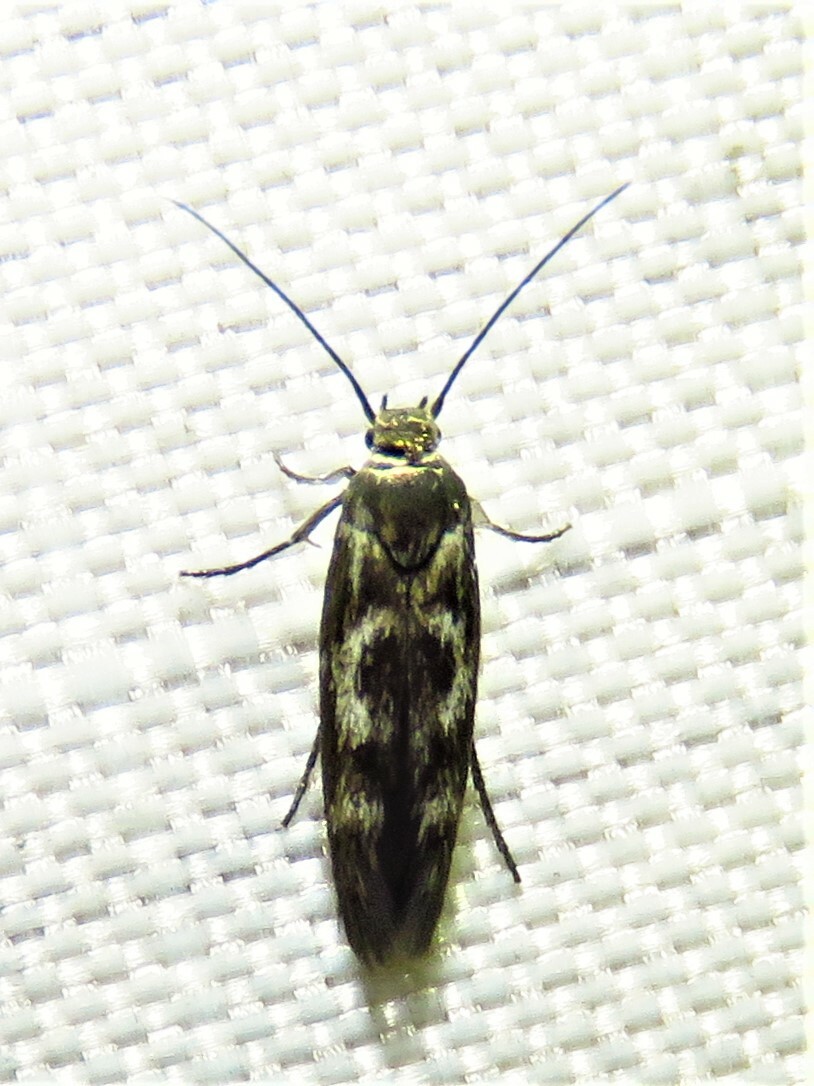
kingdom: Animalia
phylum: Arthropoda
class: Insecta
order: Lepidoptera
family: Scythrididae
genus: Scythris
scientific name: Scythris trivinctella
